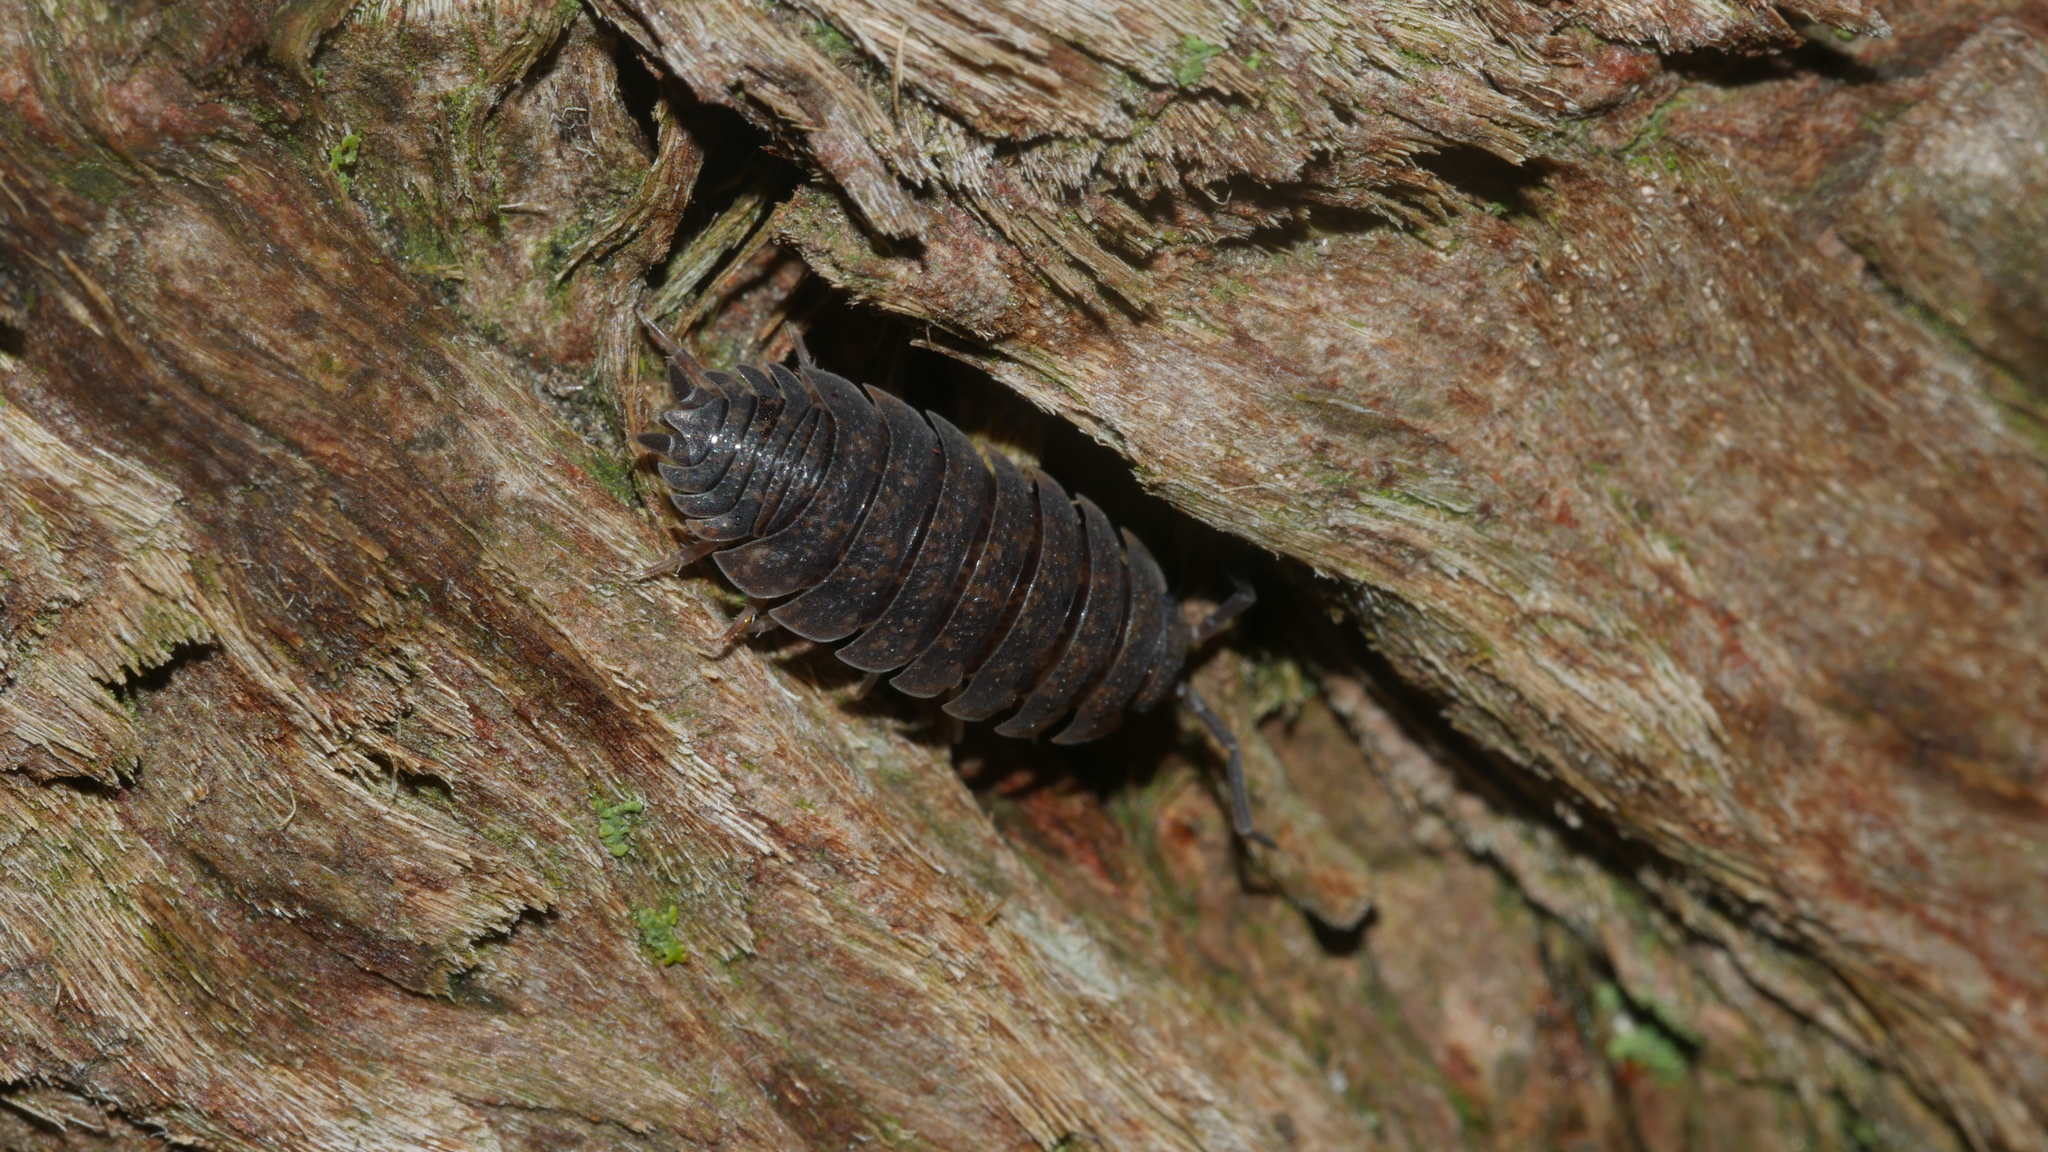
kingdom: Animalia
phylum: Arthropoda
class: Malacostraca
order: Isopoda
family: Porcellionidae
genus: Porcellio
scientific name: Porcellio scaber
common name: Common rough woodlouse
